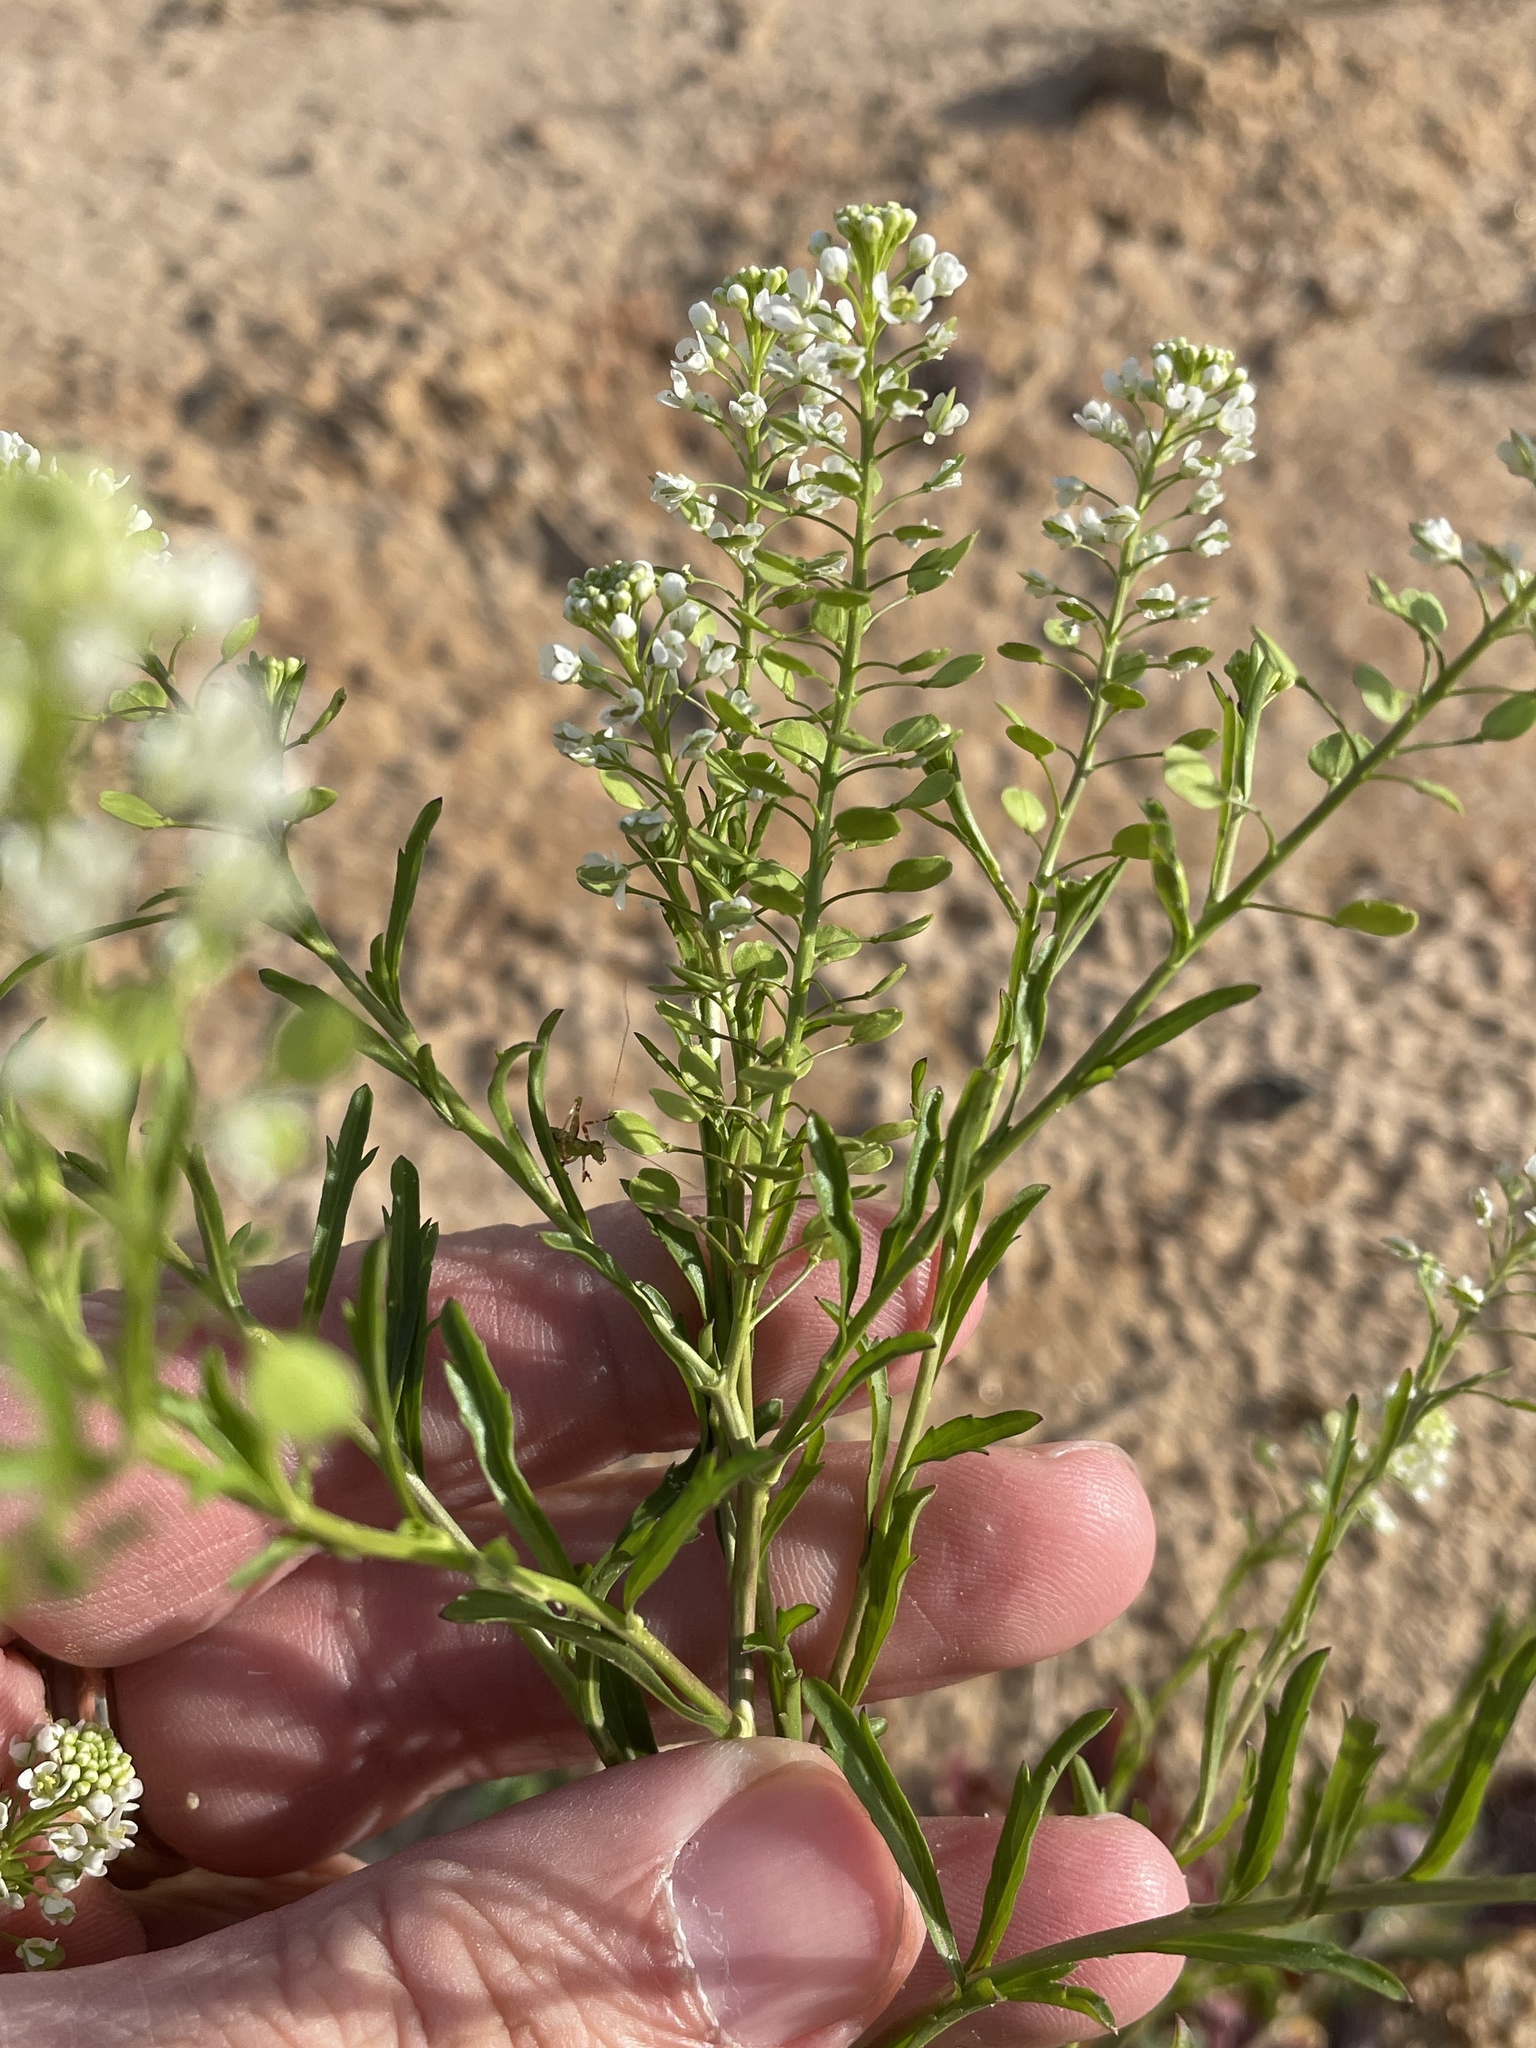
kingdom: Plantae
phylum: Tracheophyta
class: Magnoliopsida
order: Brassicales
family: Brassicaceae
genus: Lepidium
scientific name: Lepidium virginicum
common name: Least pepperwort
